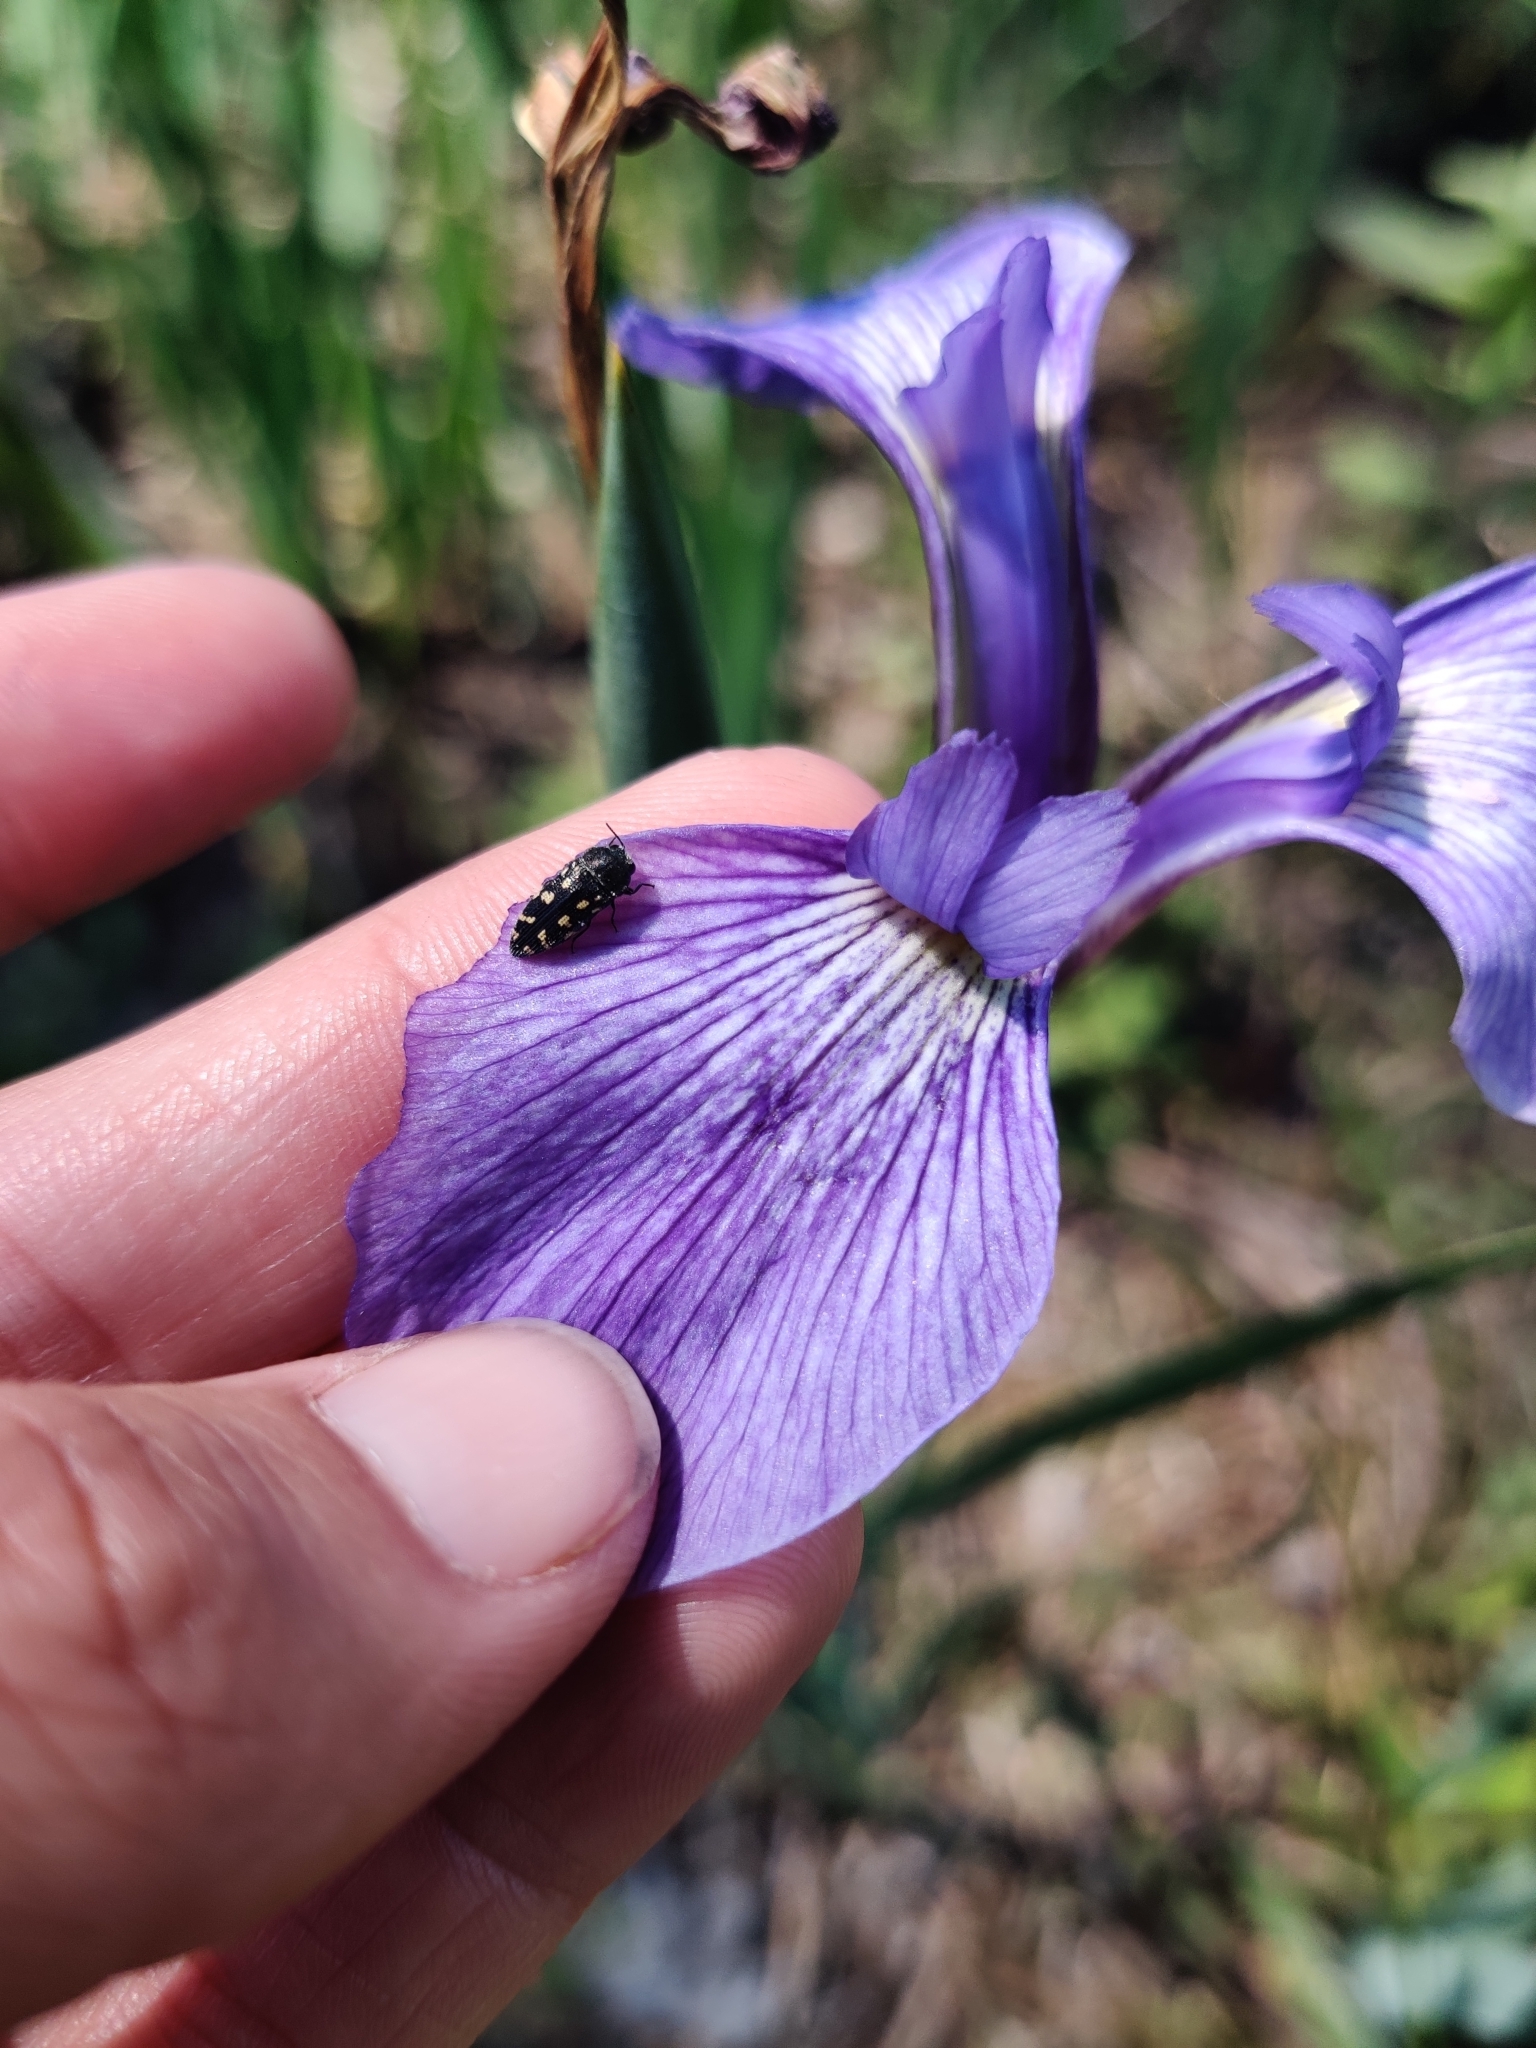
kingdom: Animalia
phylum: Arthropoda
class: Insecta
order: Coleoptera
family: Buprestidae
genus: Acmaeodera
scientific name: Acmaeodera tubulus
